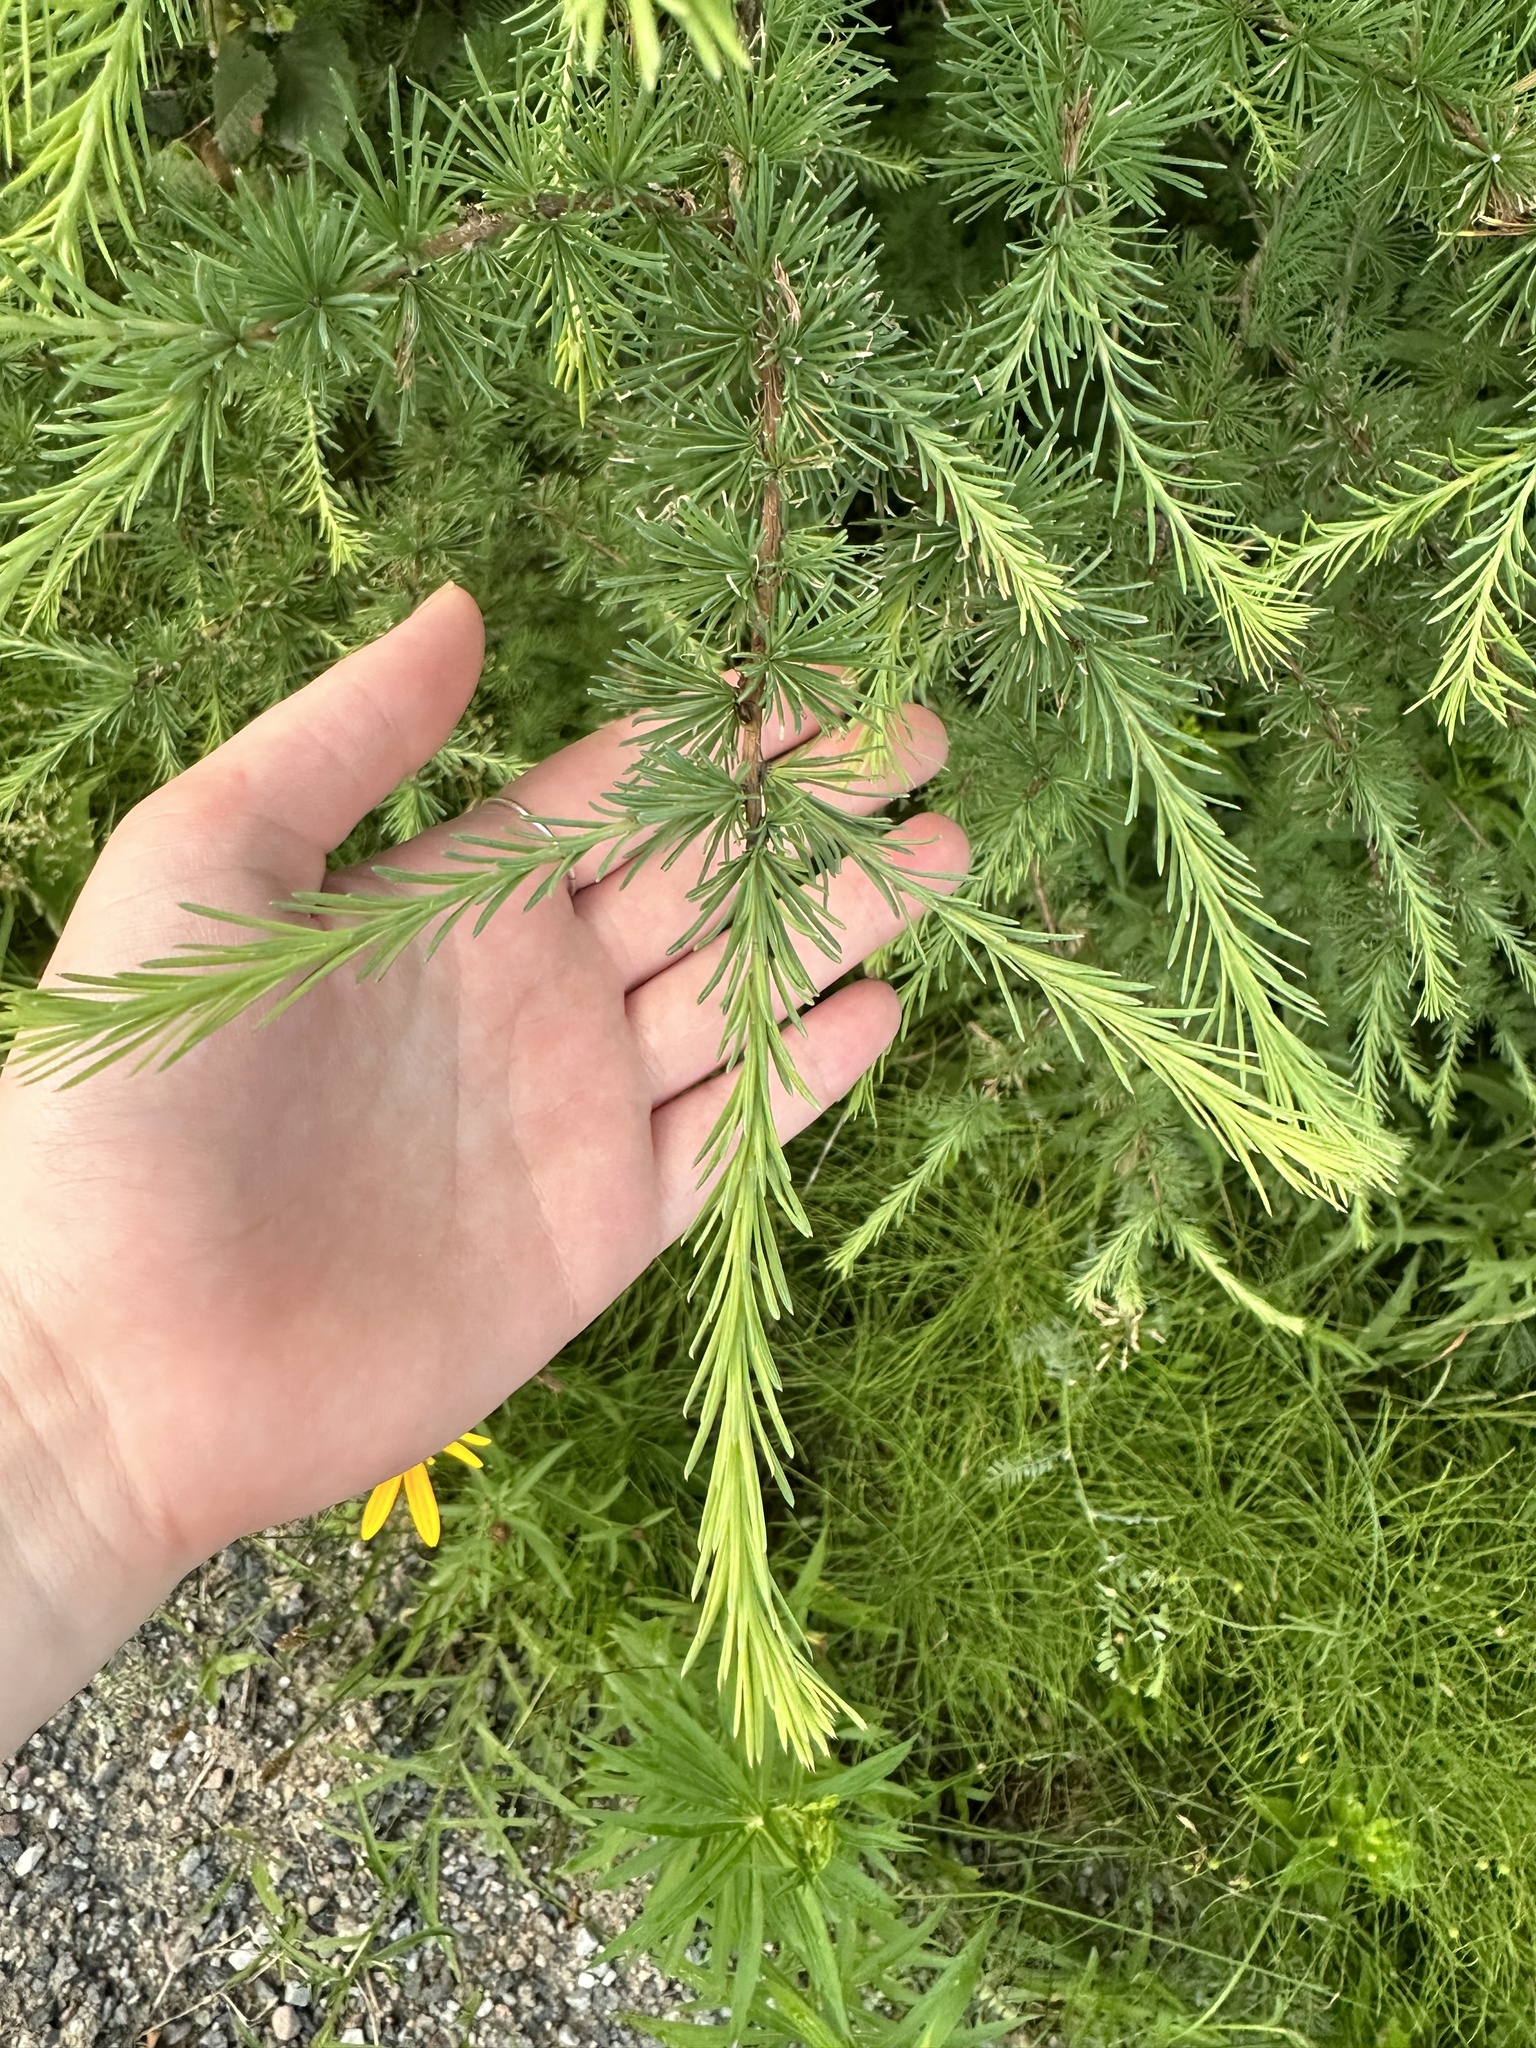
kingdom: Plantae
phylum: Tracheophyta
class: Pinopsida
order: Pinales
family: Pinaceae
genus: Larix
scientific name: Larix laricina
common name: American larch
